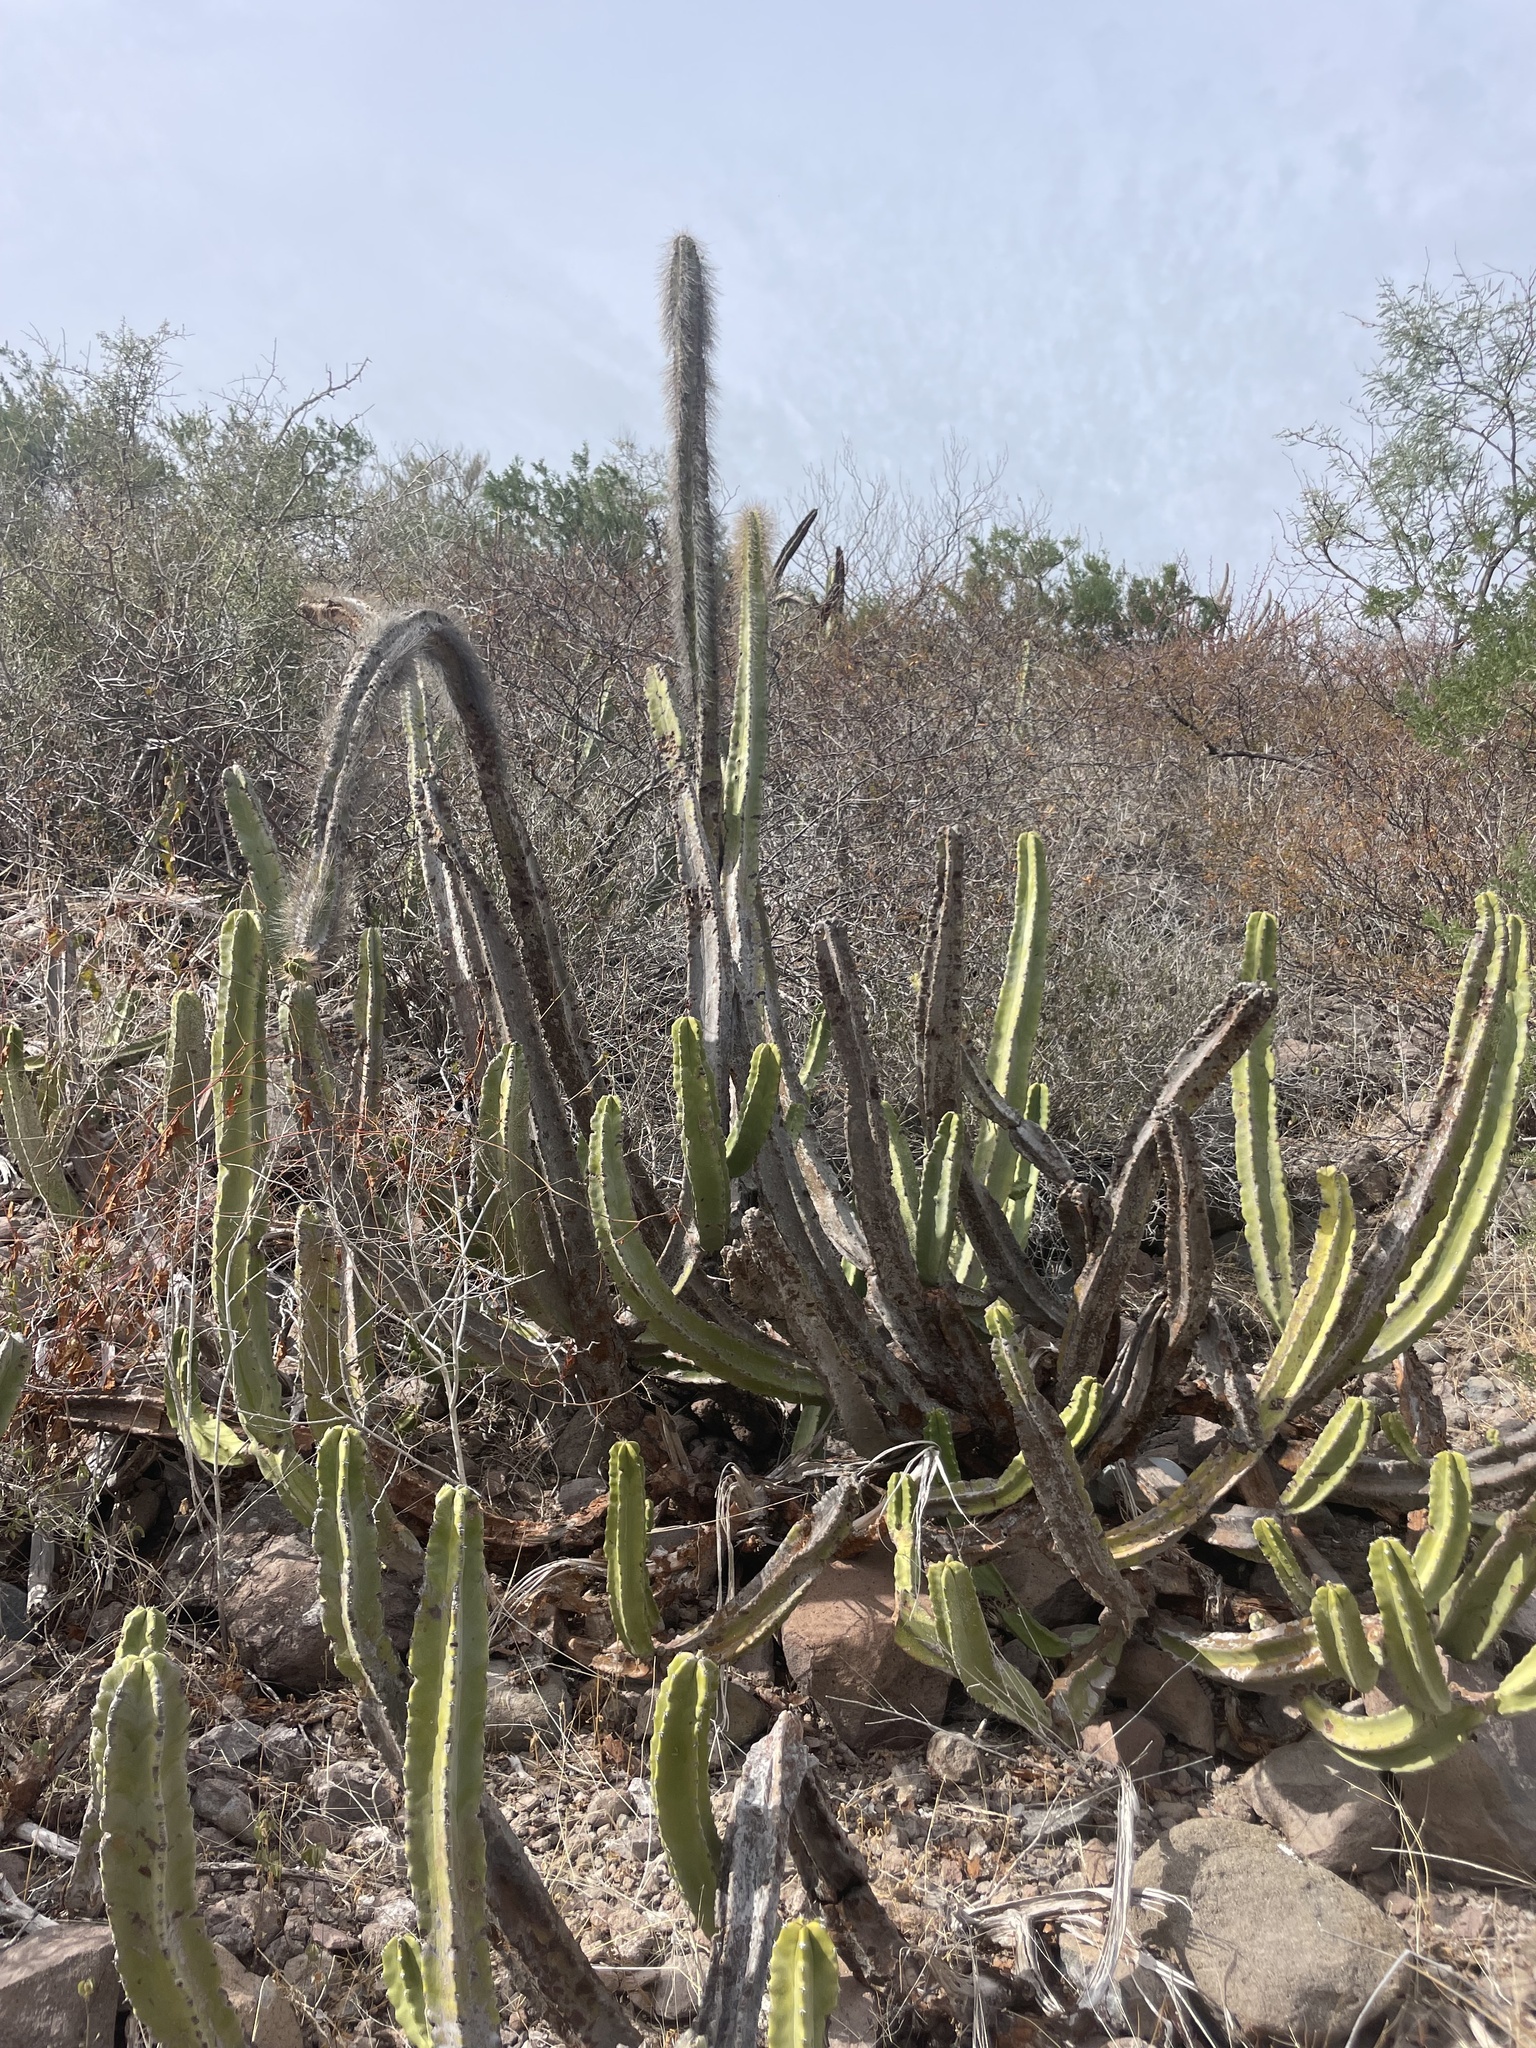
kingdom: Plantae
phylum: Tracheophyta
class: Magnoliopsida
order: Caryophyllales
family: Cactaceae
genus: Pachycereus
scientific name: Pachycereus schottii
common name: Senita cactus
